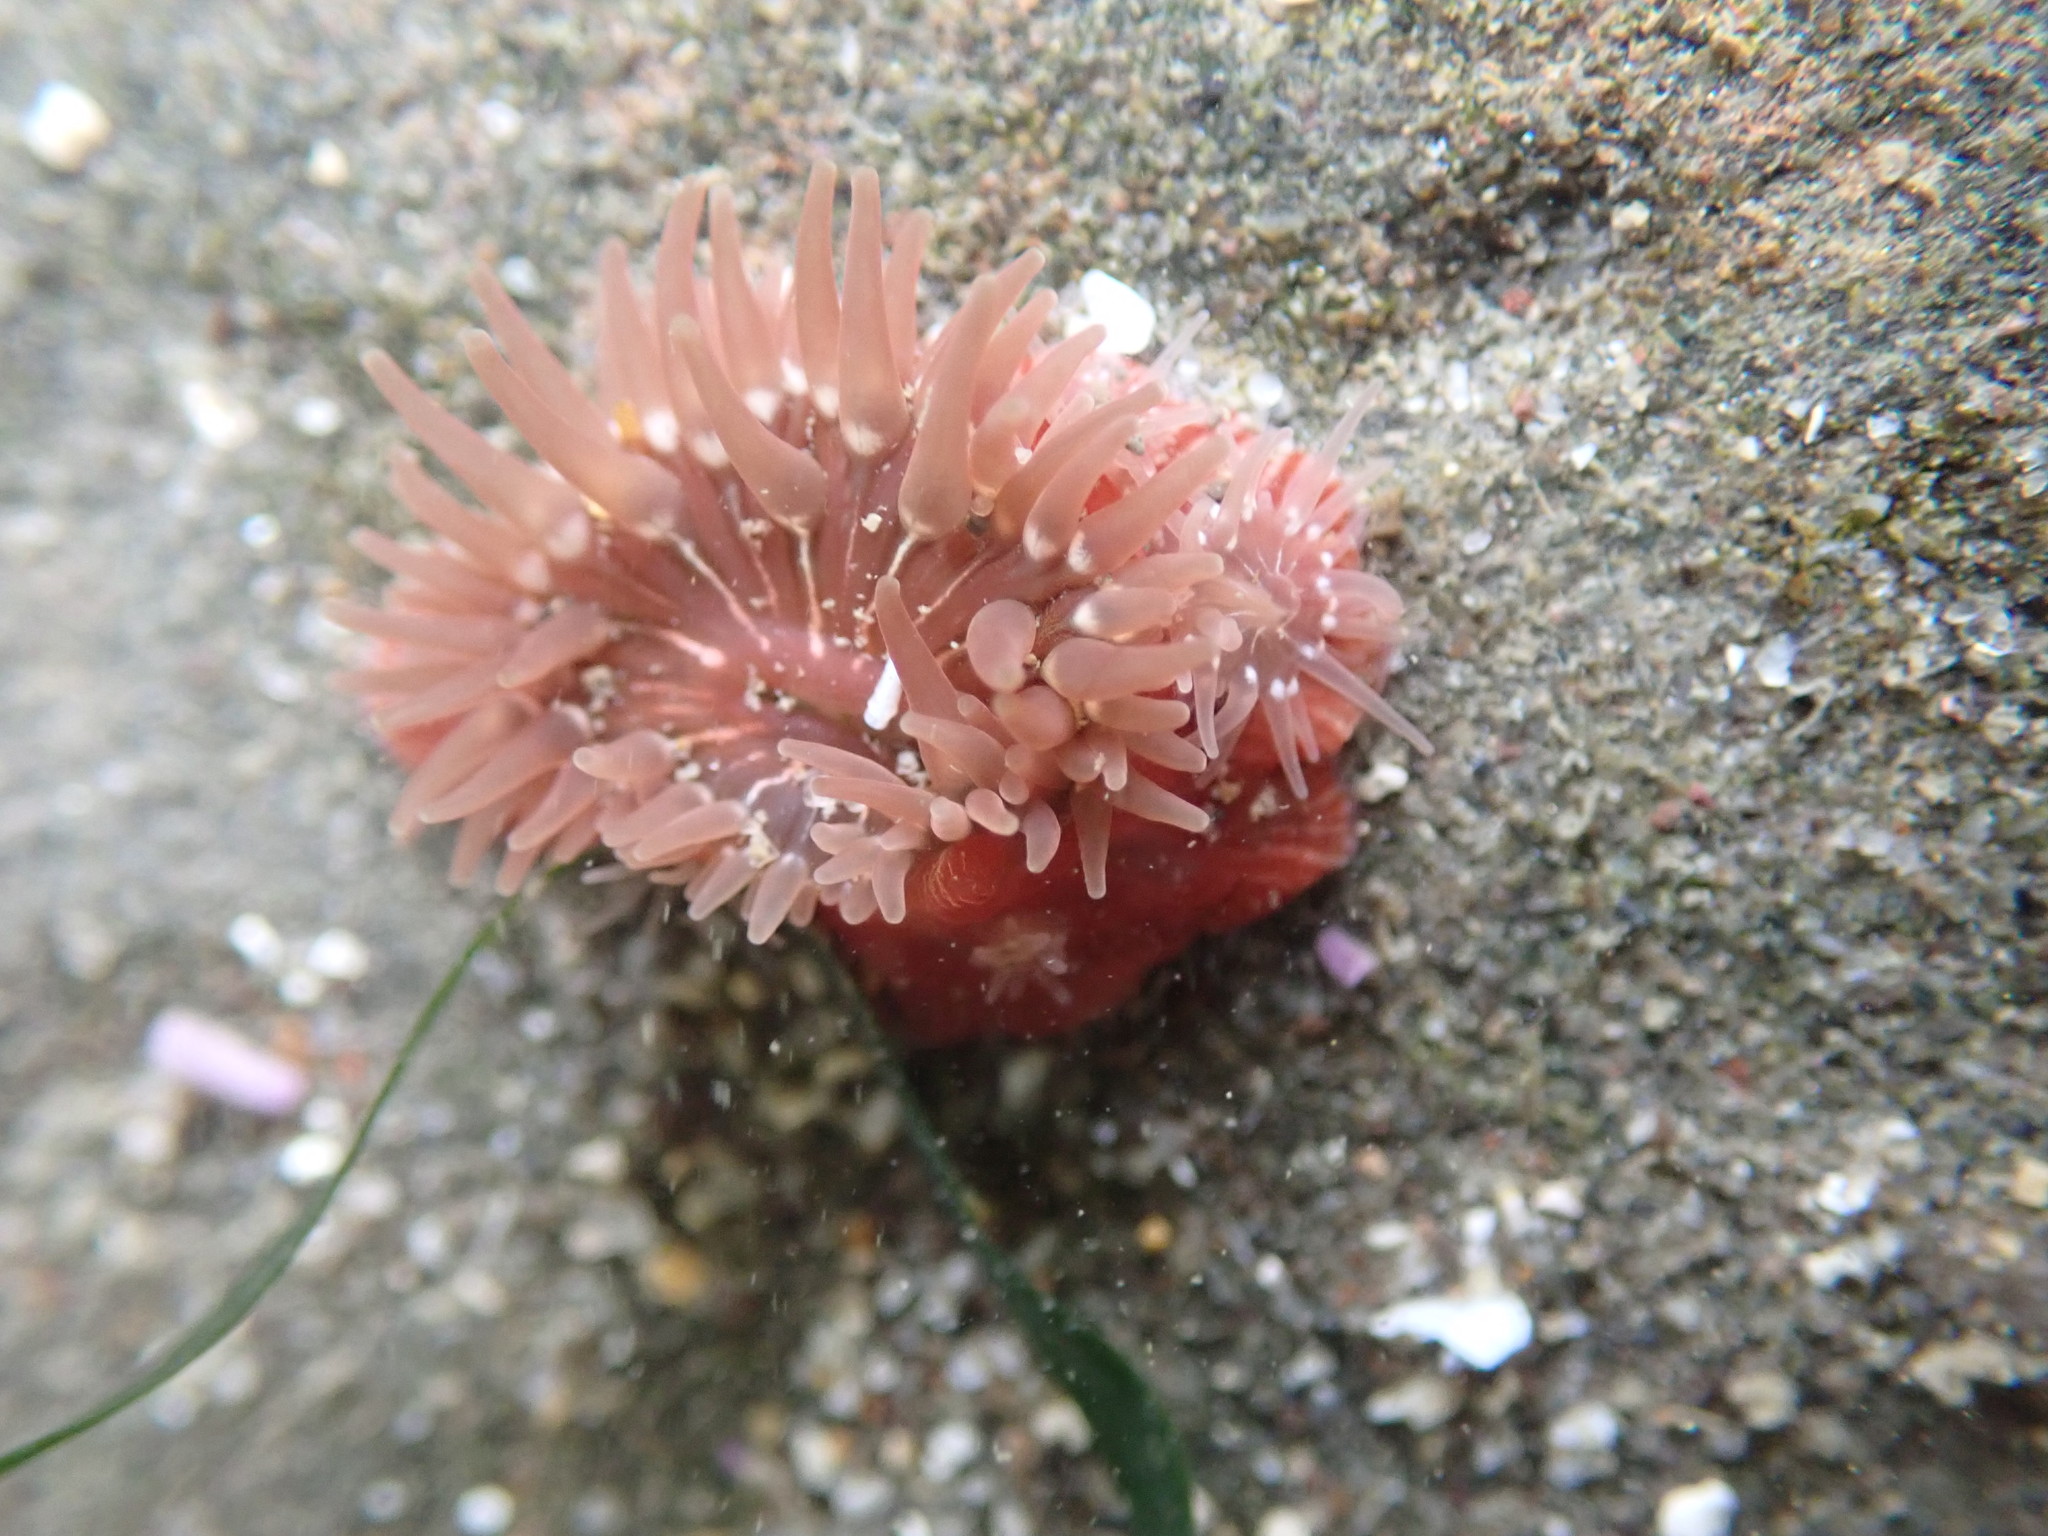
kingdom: Animalia
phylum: Cnidaria
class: Anthozoa
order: Actiniaria
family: Actiniidae
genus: Epiactis
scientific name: Epiactis prolifera
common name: Brooding anemone
